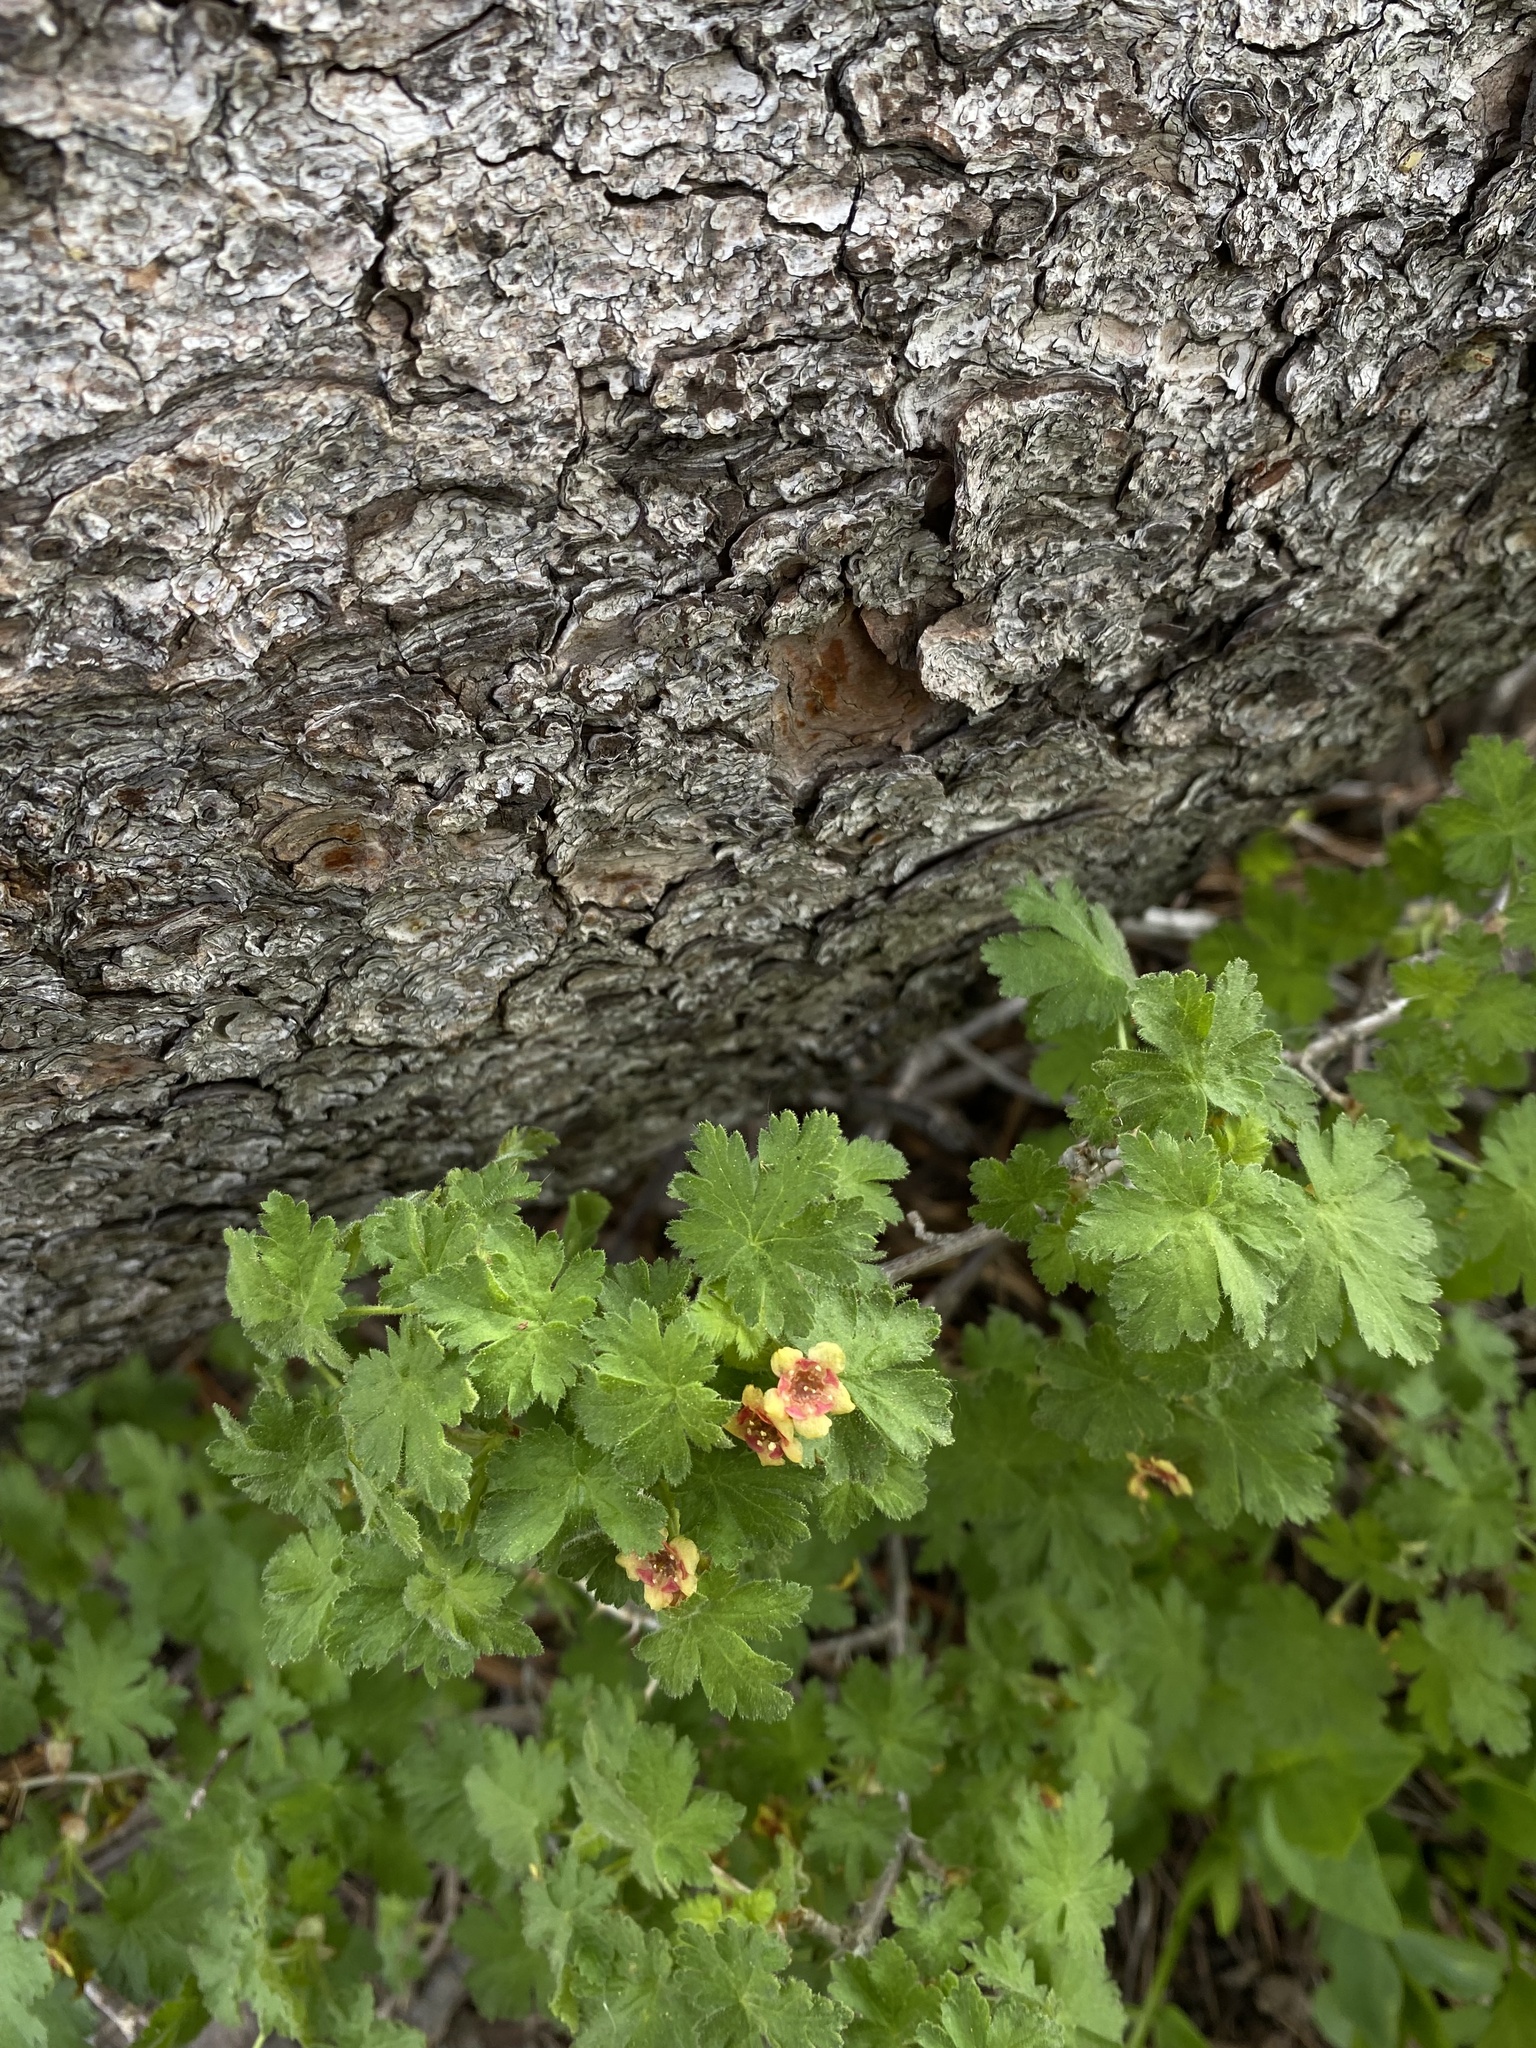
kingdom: Plantae
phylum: Tracheophyta
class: Magnoliopsida
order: Saxifragales
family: Grossulariaceae
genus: Ribes
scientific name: Ribes montigenum
